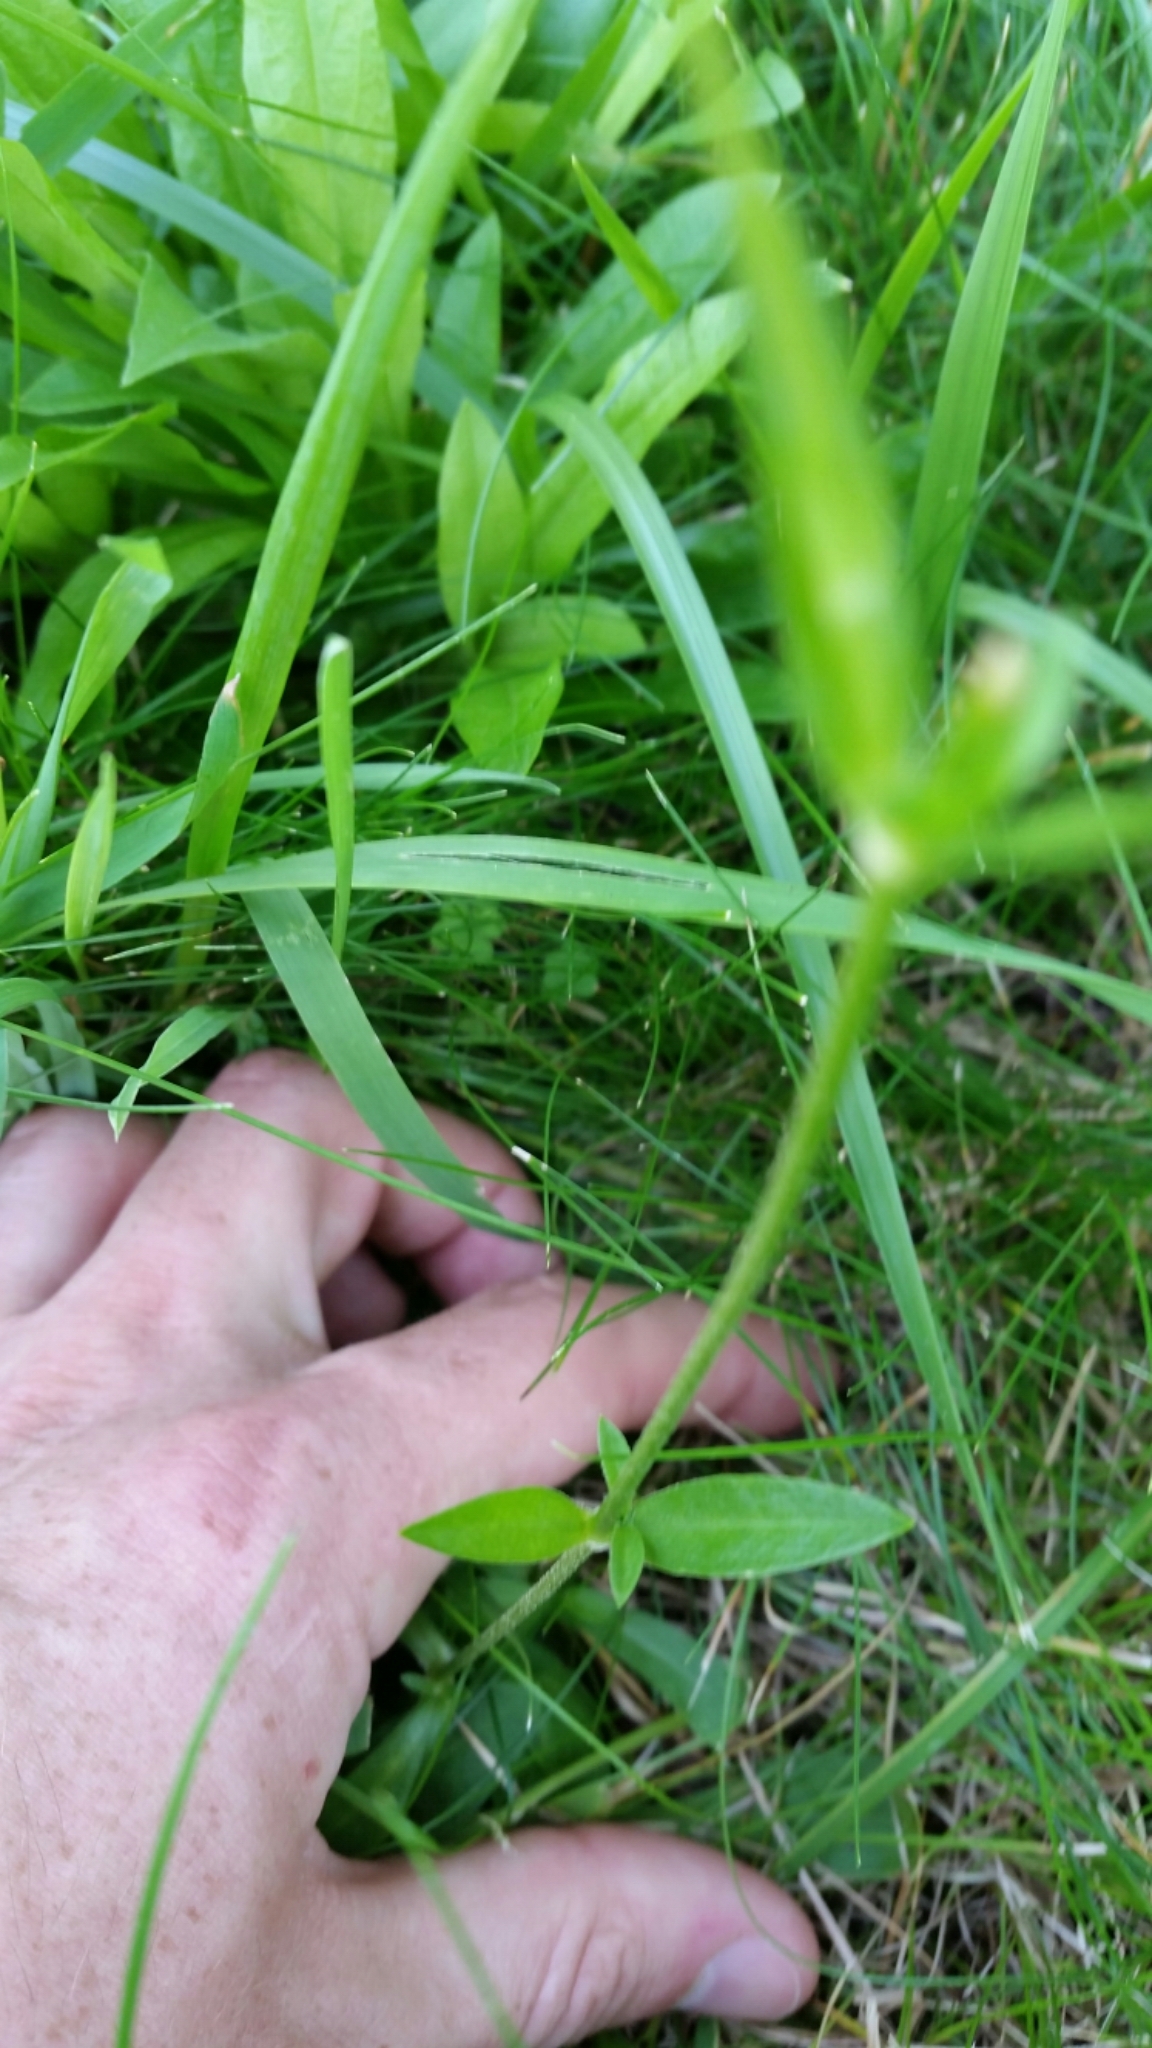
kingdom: Plantae
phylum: Tracheophyta
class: Magnoliopsida
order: Caryophyllales
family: Caryophyllaceae
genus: Silene
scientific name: Silene flos-cuculi
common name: Ragged-robin
